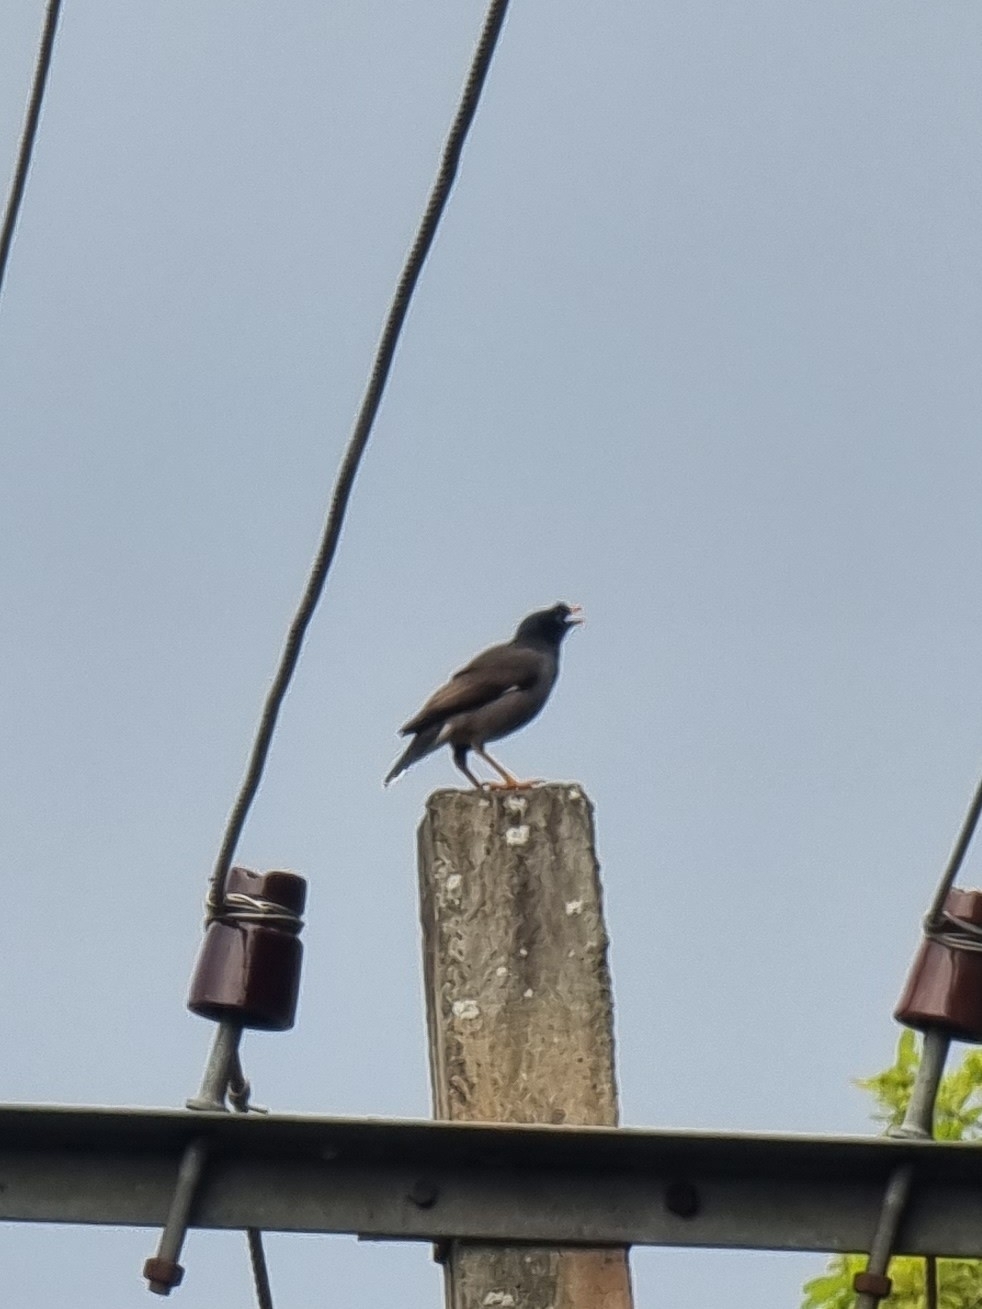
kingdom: Animalia
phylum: Chordata
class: Aves
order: Passeriformes
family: Sturnidae
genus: Acridotheres
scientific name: Acridotheres fuscus
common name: Jungle myna
